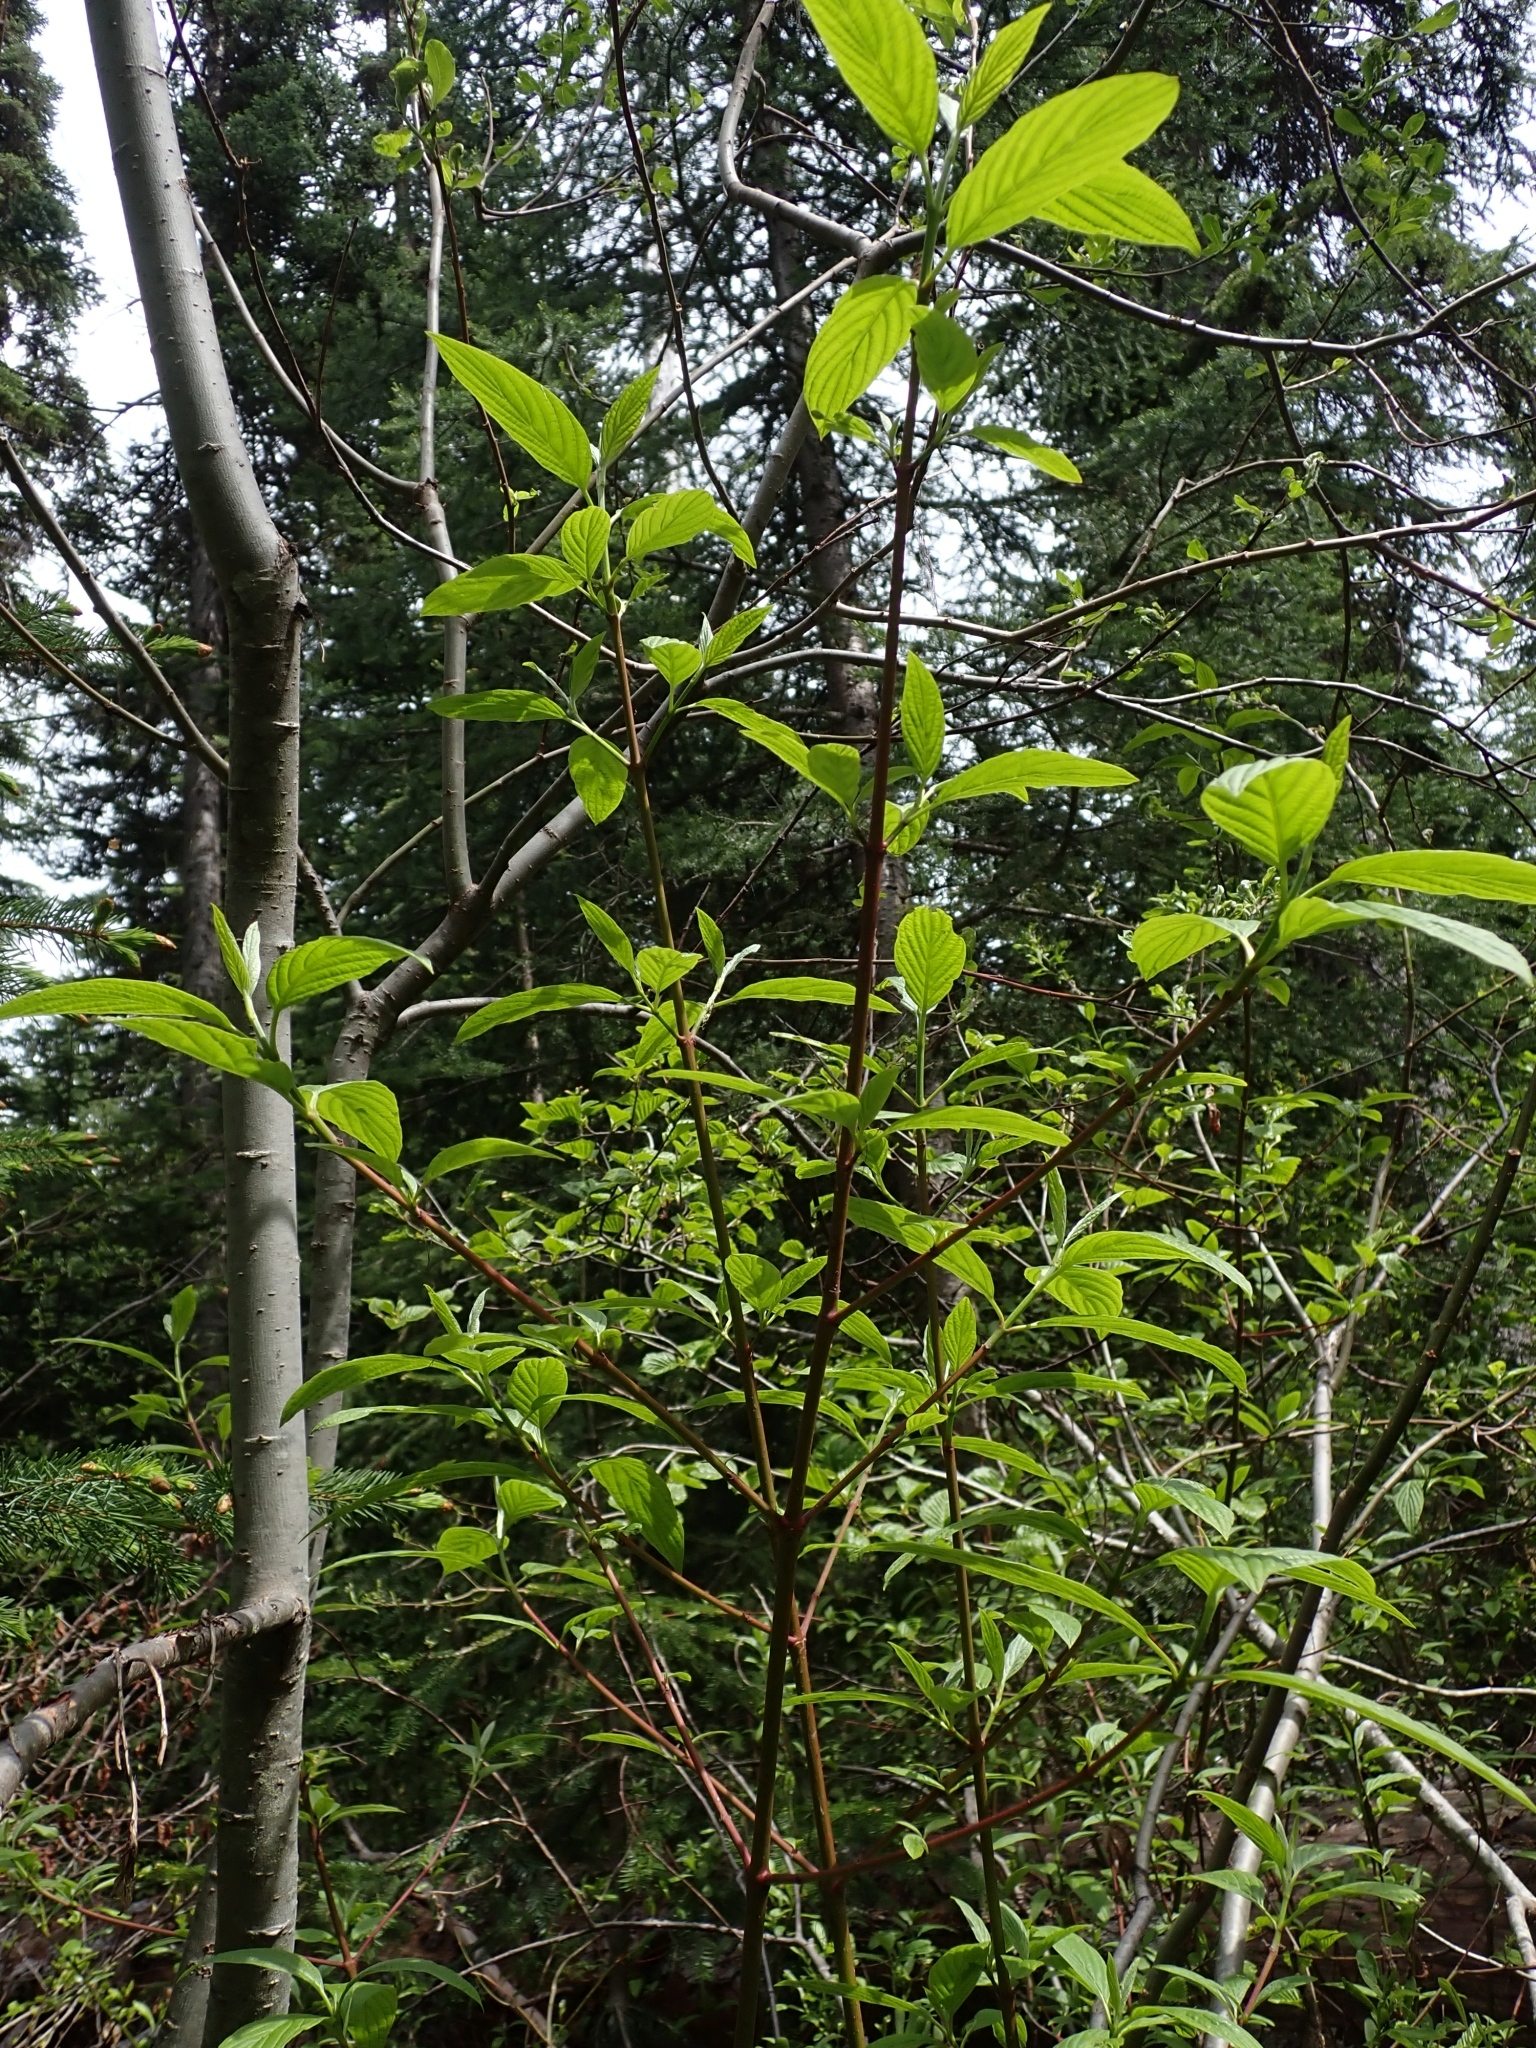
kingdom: Plantae
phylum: Tracheophyta
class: Magnoliopsida
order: Cornales
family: Cornaceae
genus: Cornus
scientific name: Cornus sericea
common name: Red-osier dogwood
